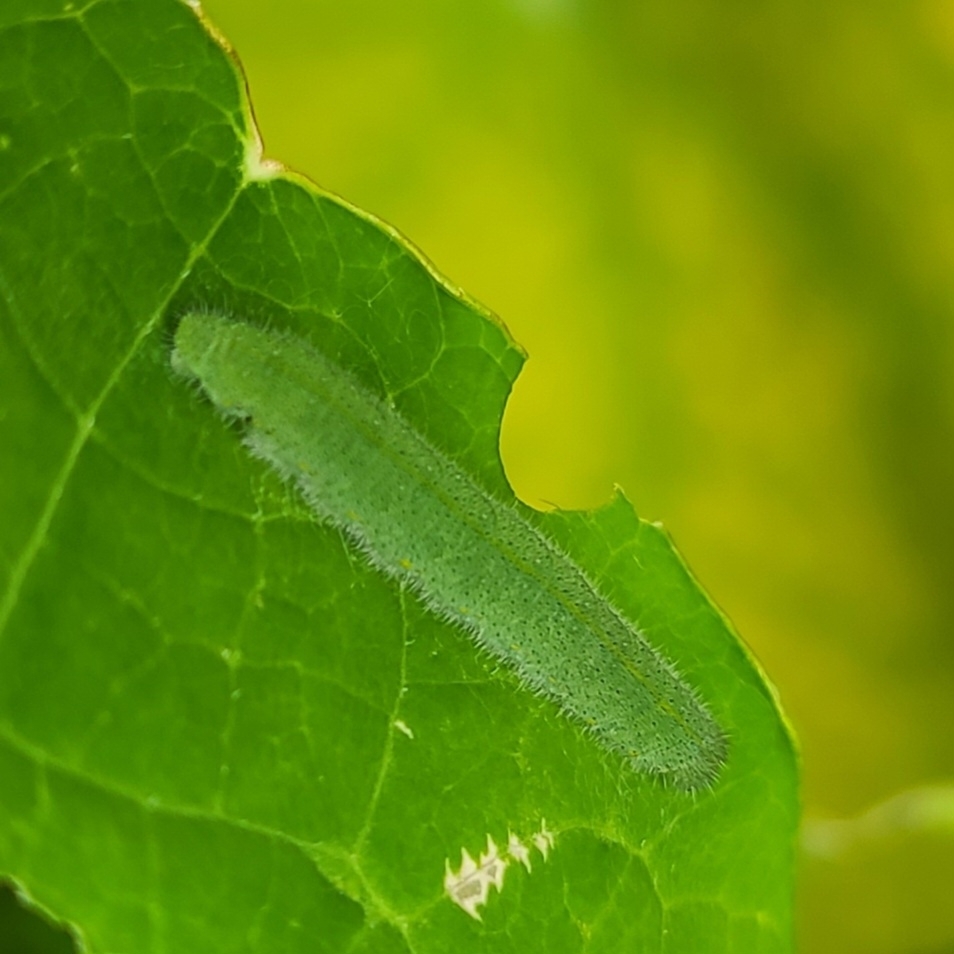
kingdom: Animalia
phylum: Arthropoda
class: Insecta
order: Lepidoptera
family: Pieridae
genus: Pieris
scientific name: Pieris rapae
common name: Small white
